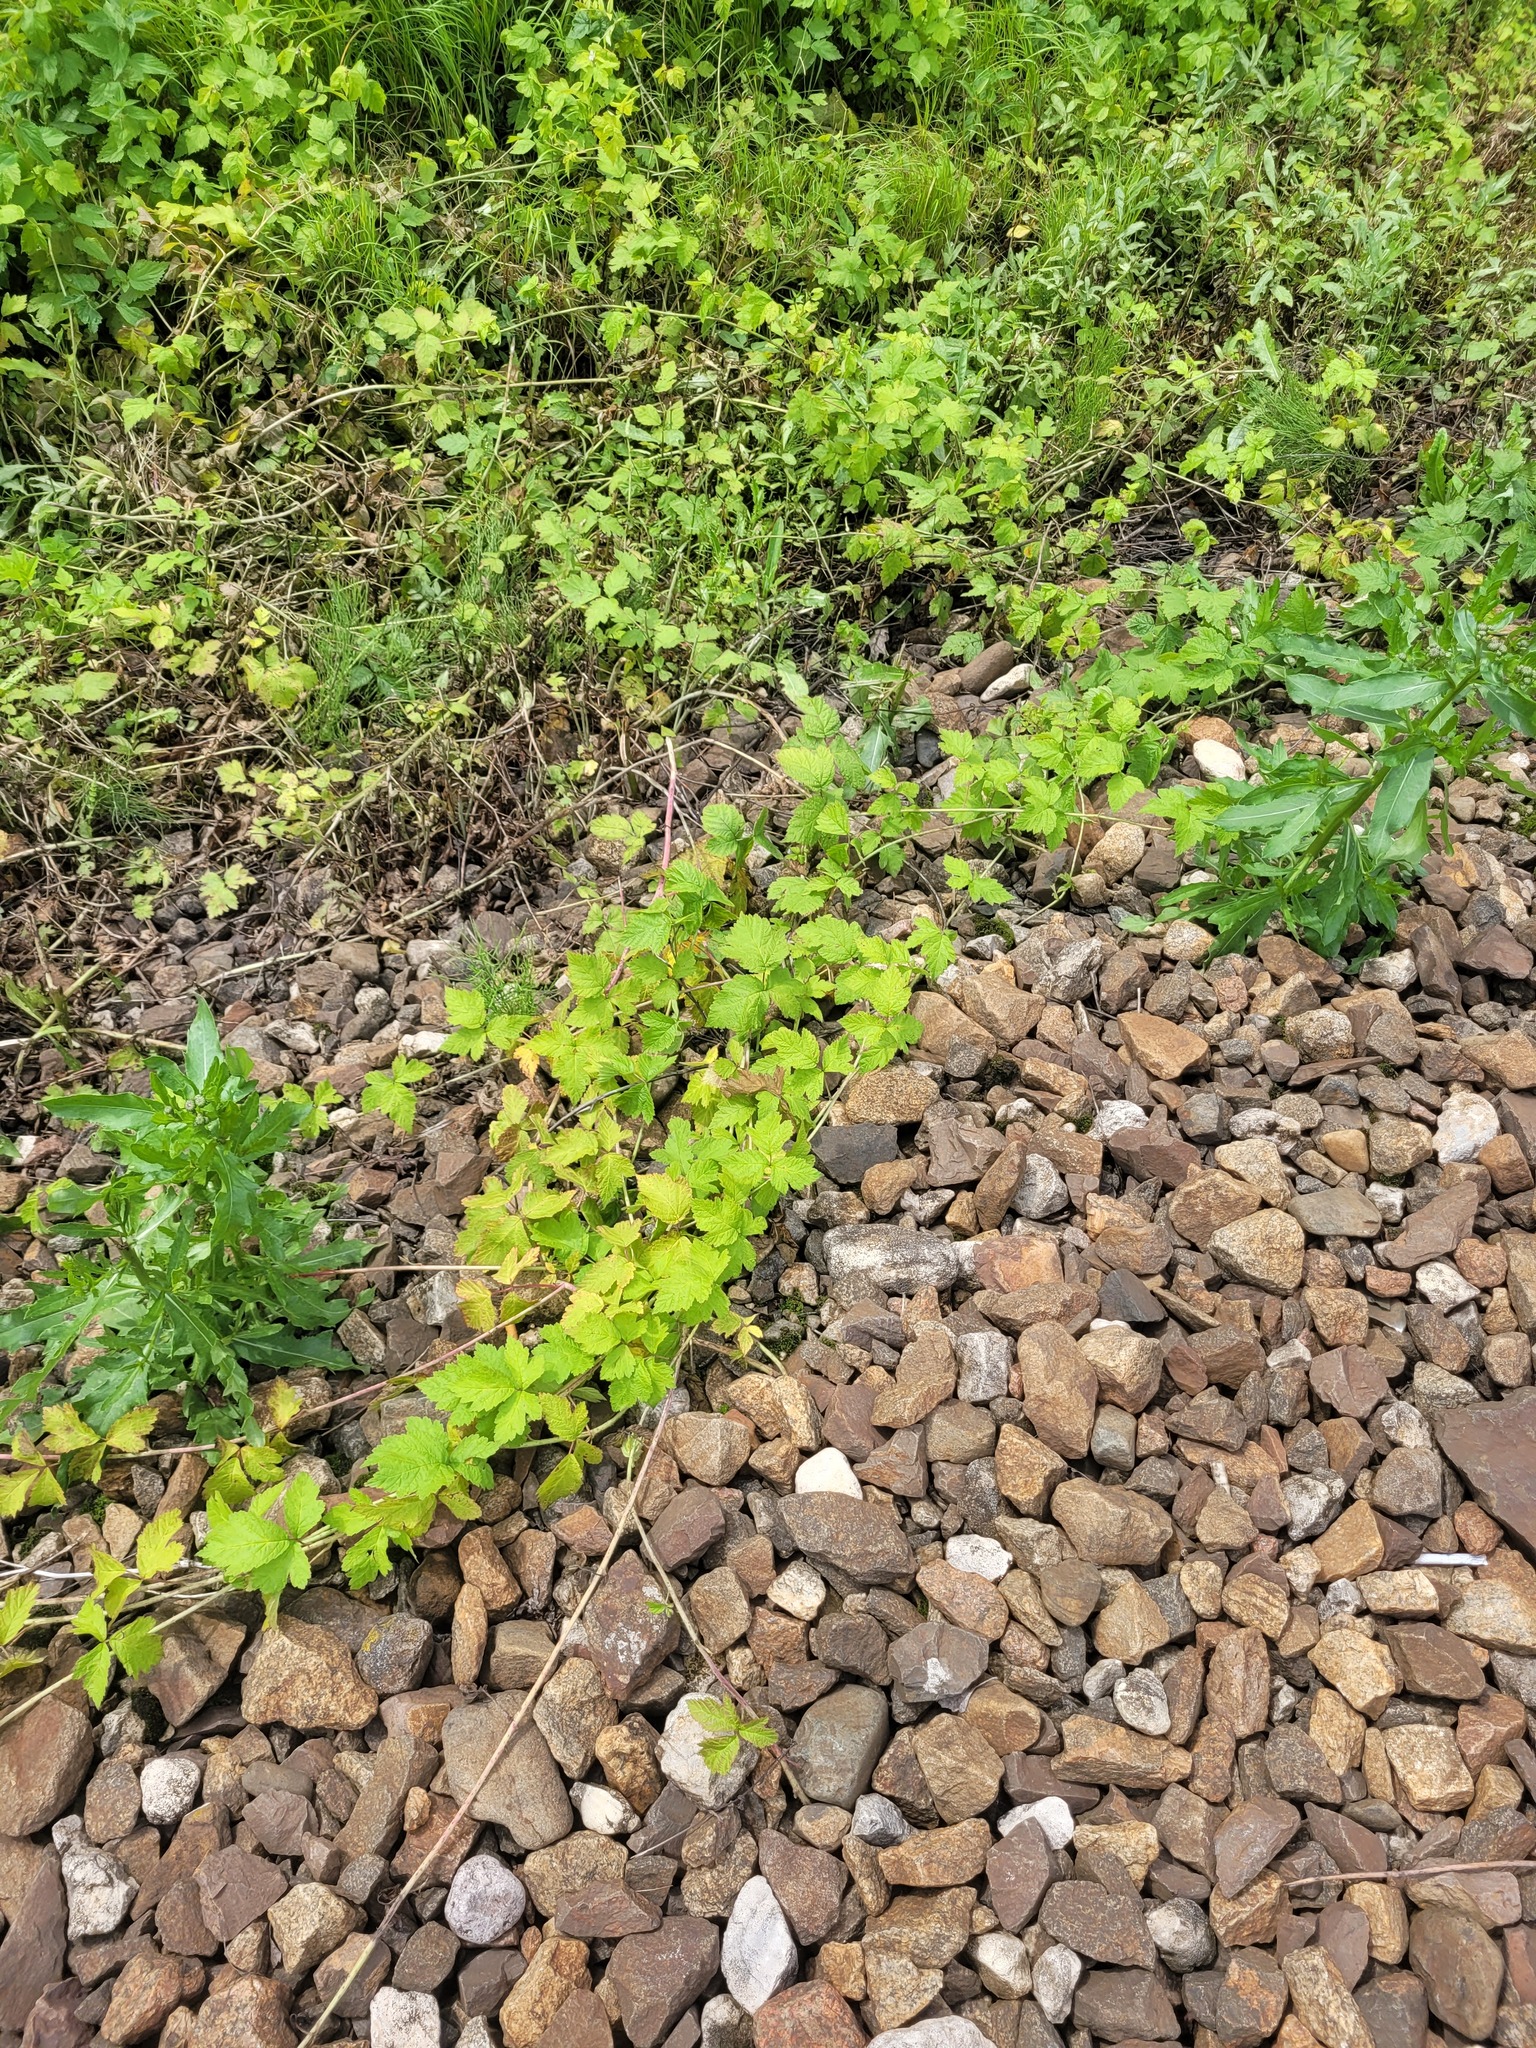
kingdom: Plantae
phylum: Tracheophyta
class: Magnoliopsida
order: Rosales
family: Rosaceae
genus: Rubus
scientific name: Rubus caesius
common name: Dewberry
